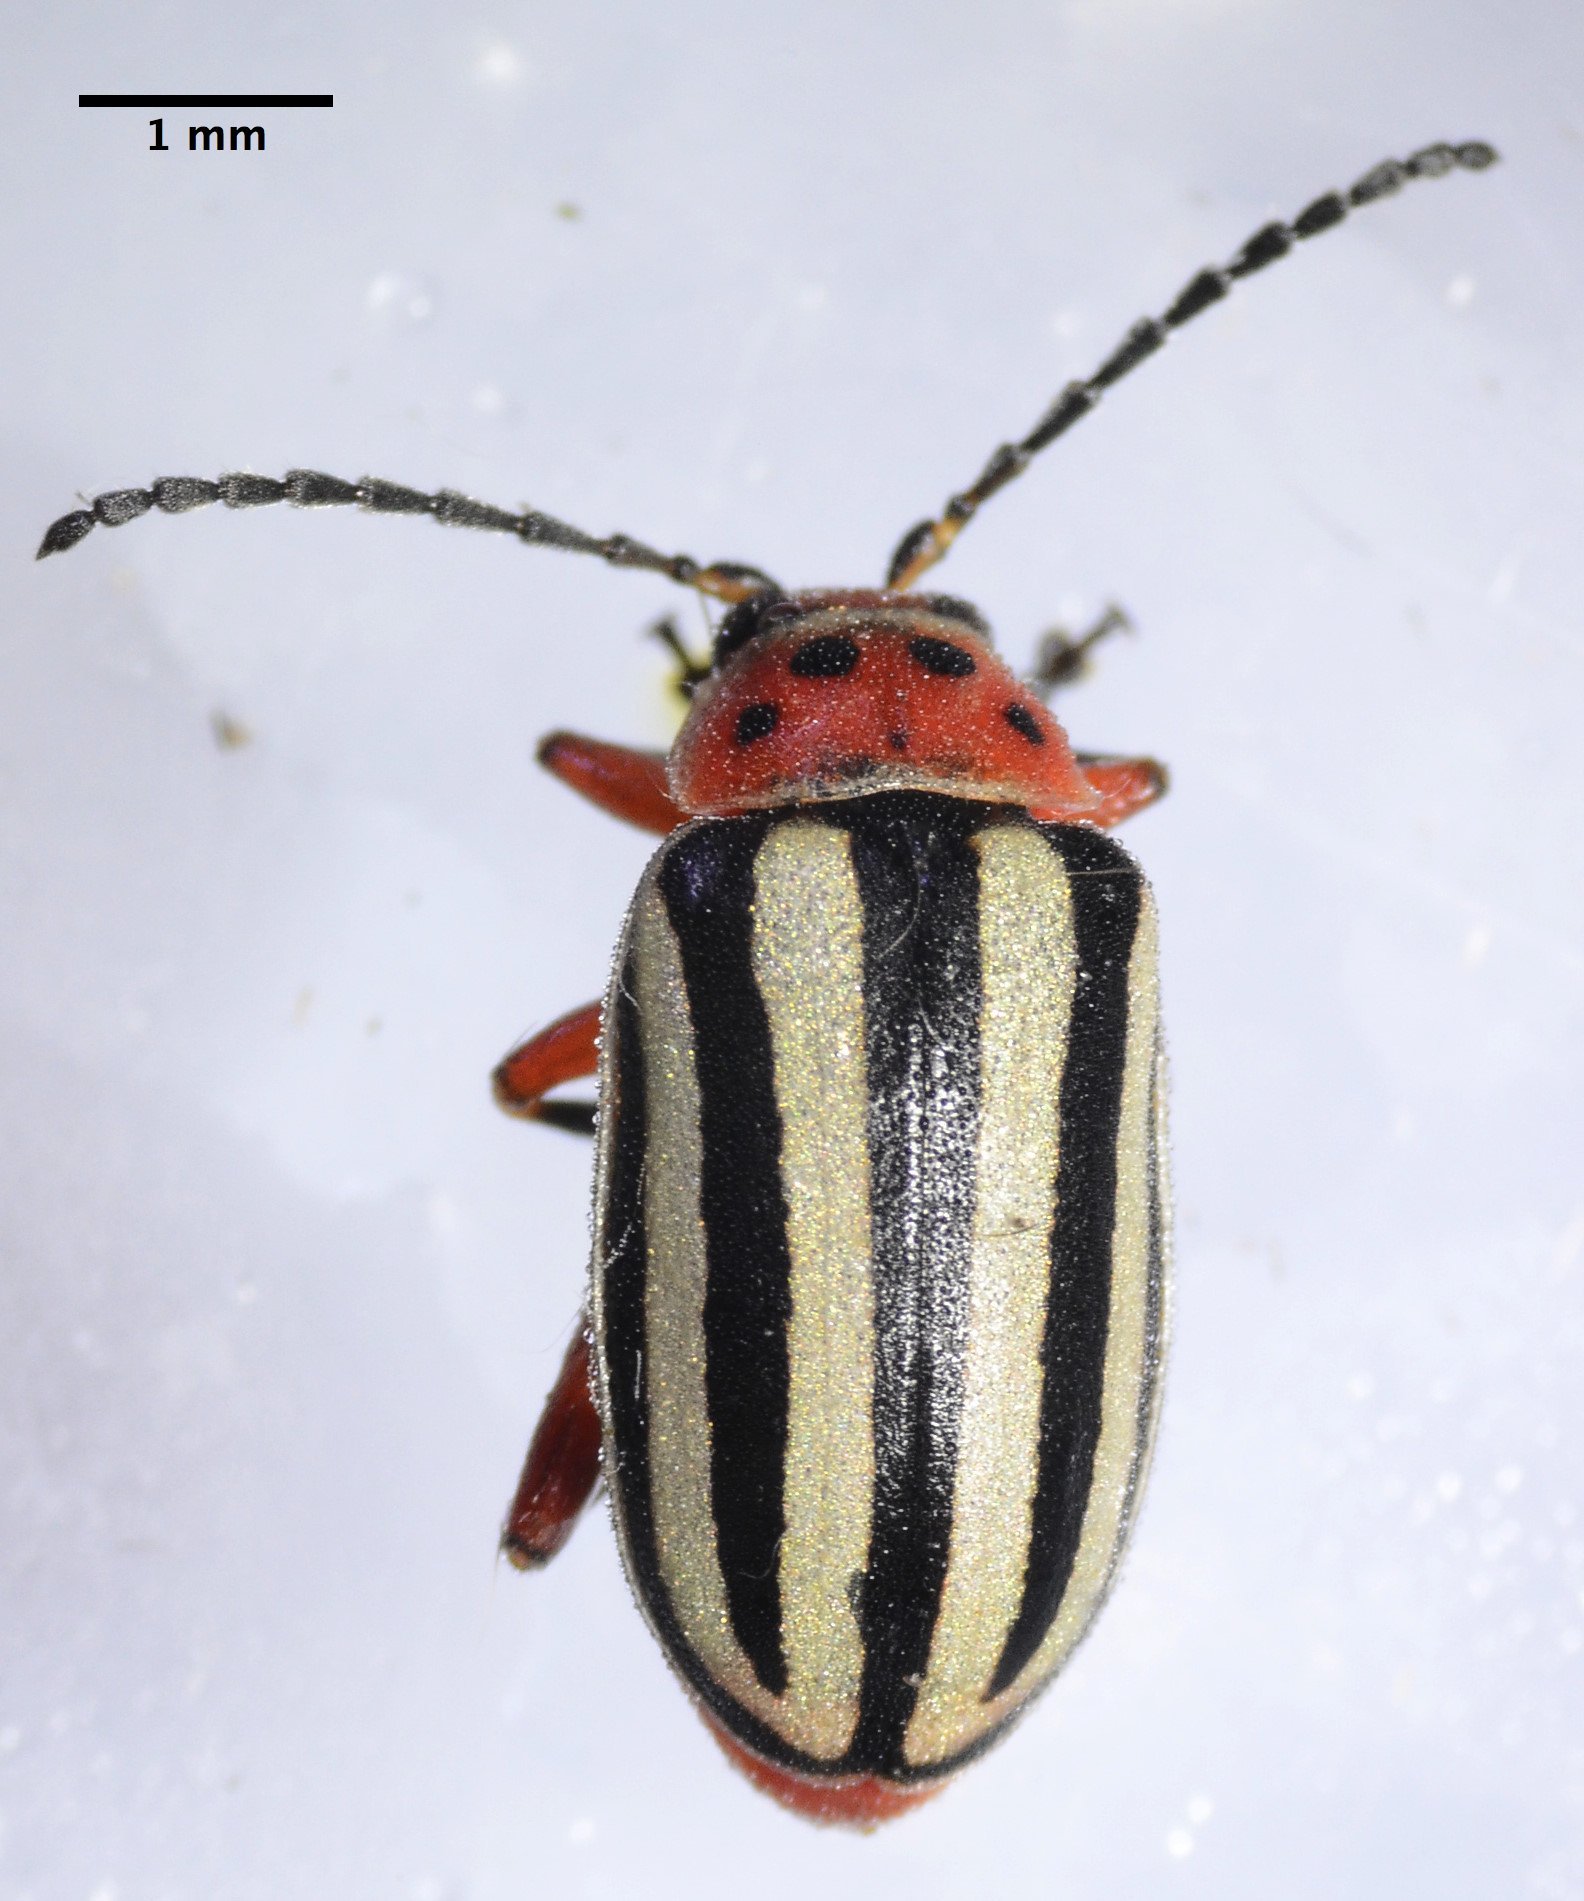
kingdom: Animalia
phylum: Arthropoda
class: Insecta
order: Coleoptera
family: Chrysomelidae
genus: Disonycha
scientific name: Disonycha latiovittata
